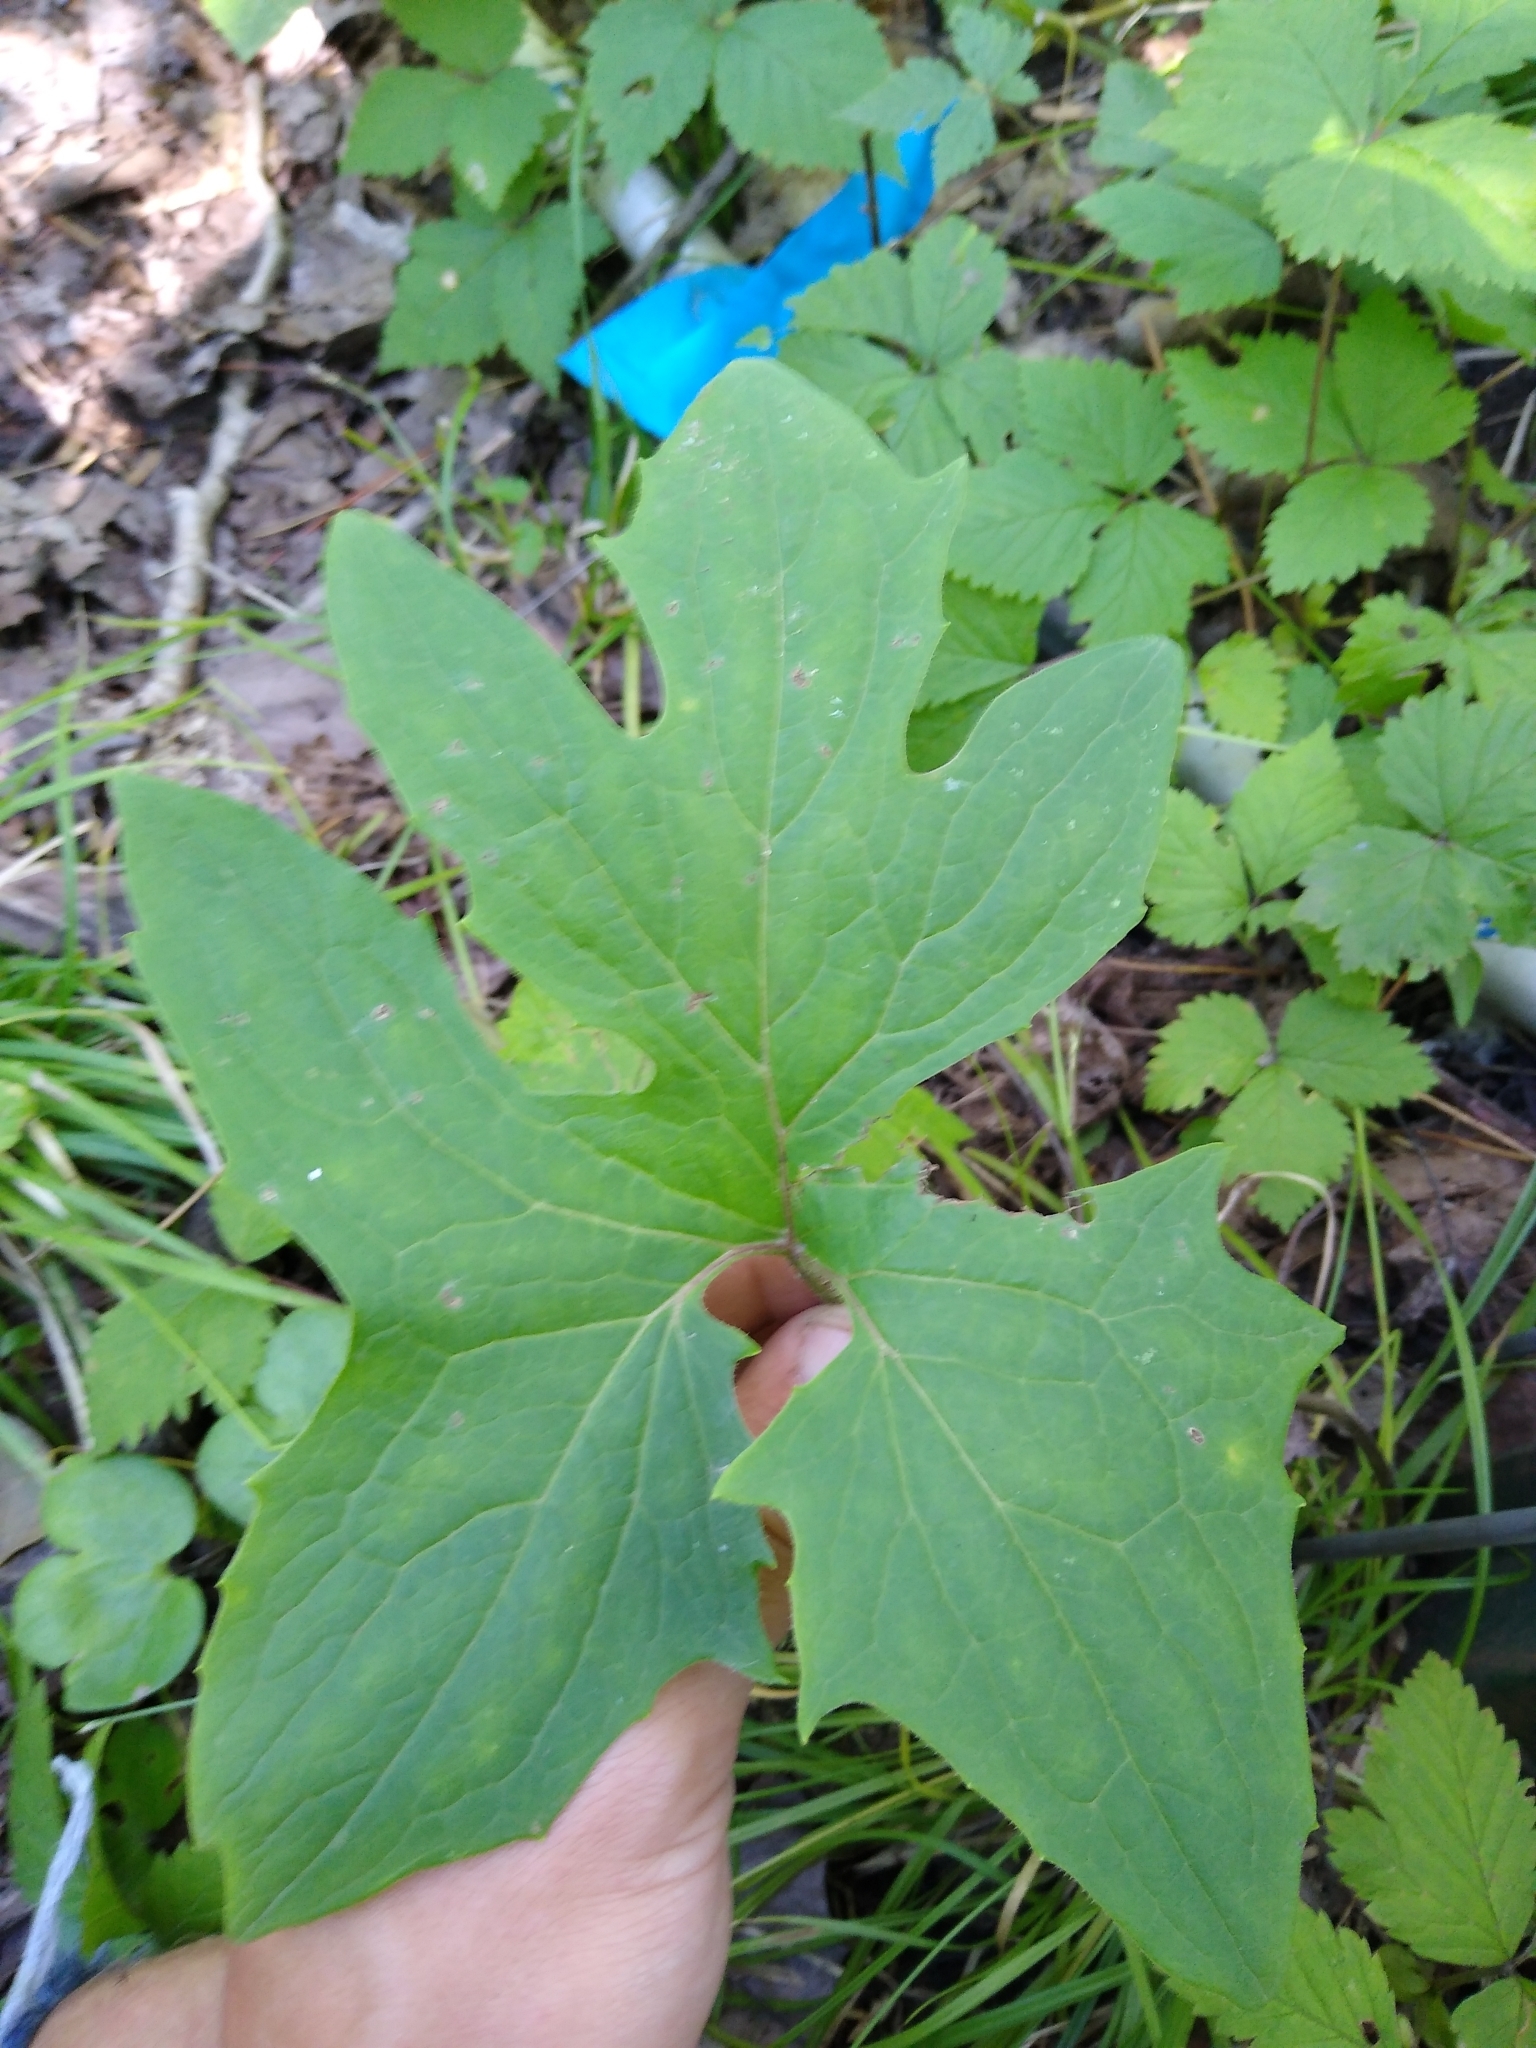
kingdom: Plantae
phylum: Tracheophyta
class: Magnoliopsida
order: Asterales
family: Asteraceae
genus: Nabalus
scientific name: Nabalus albus
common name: White rattlesnakeroot
